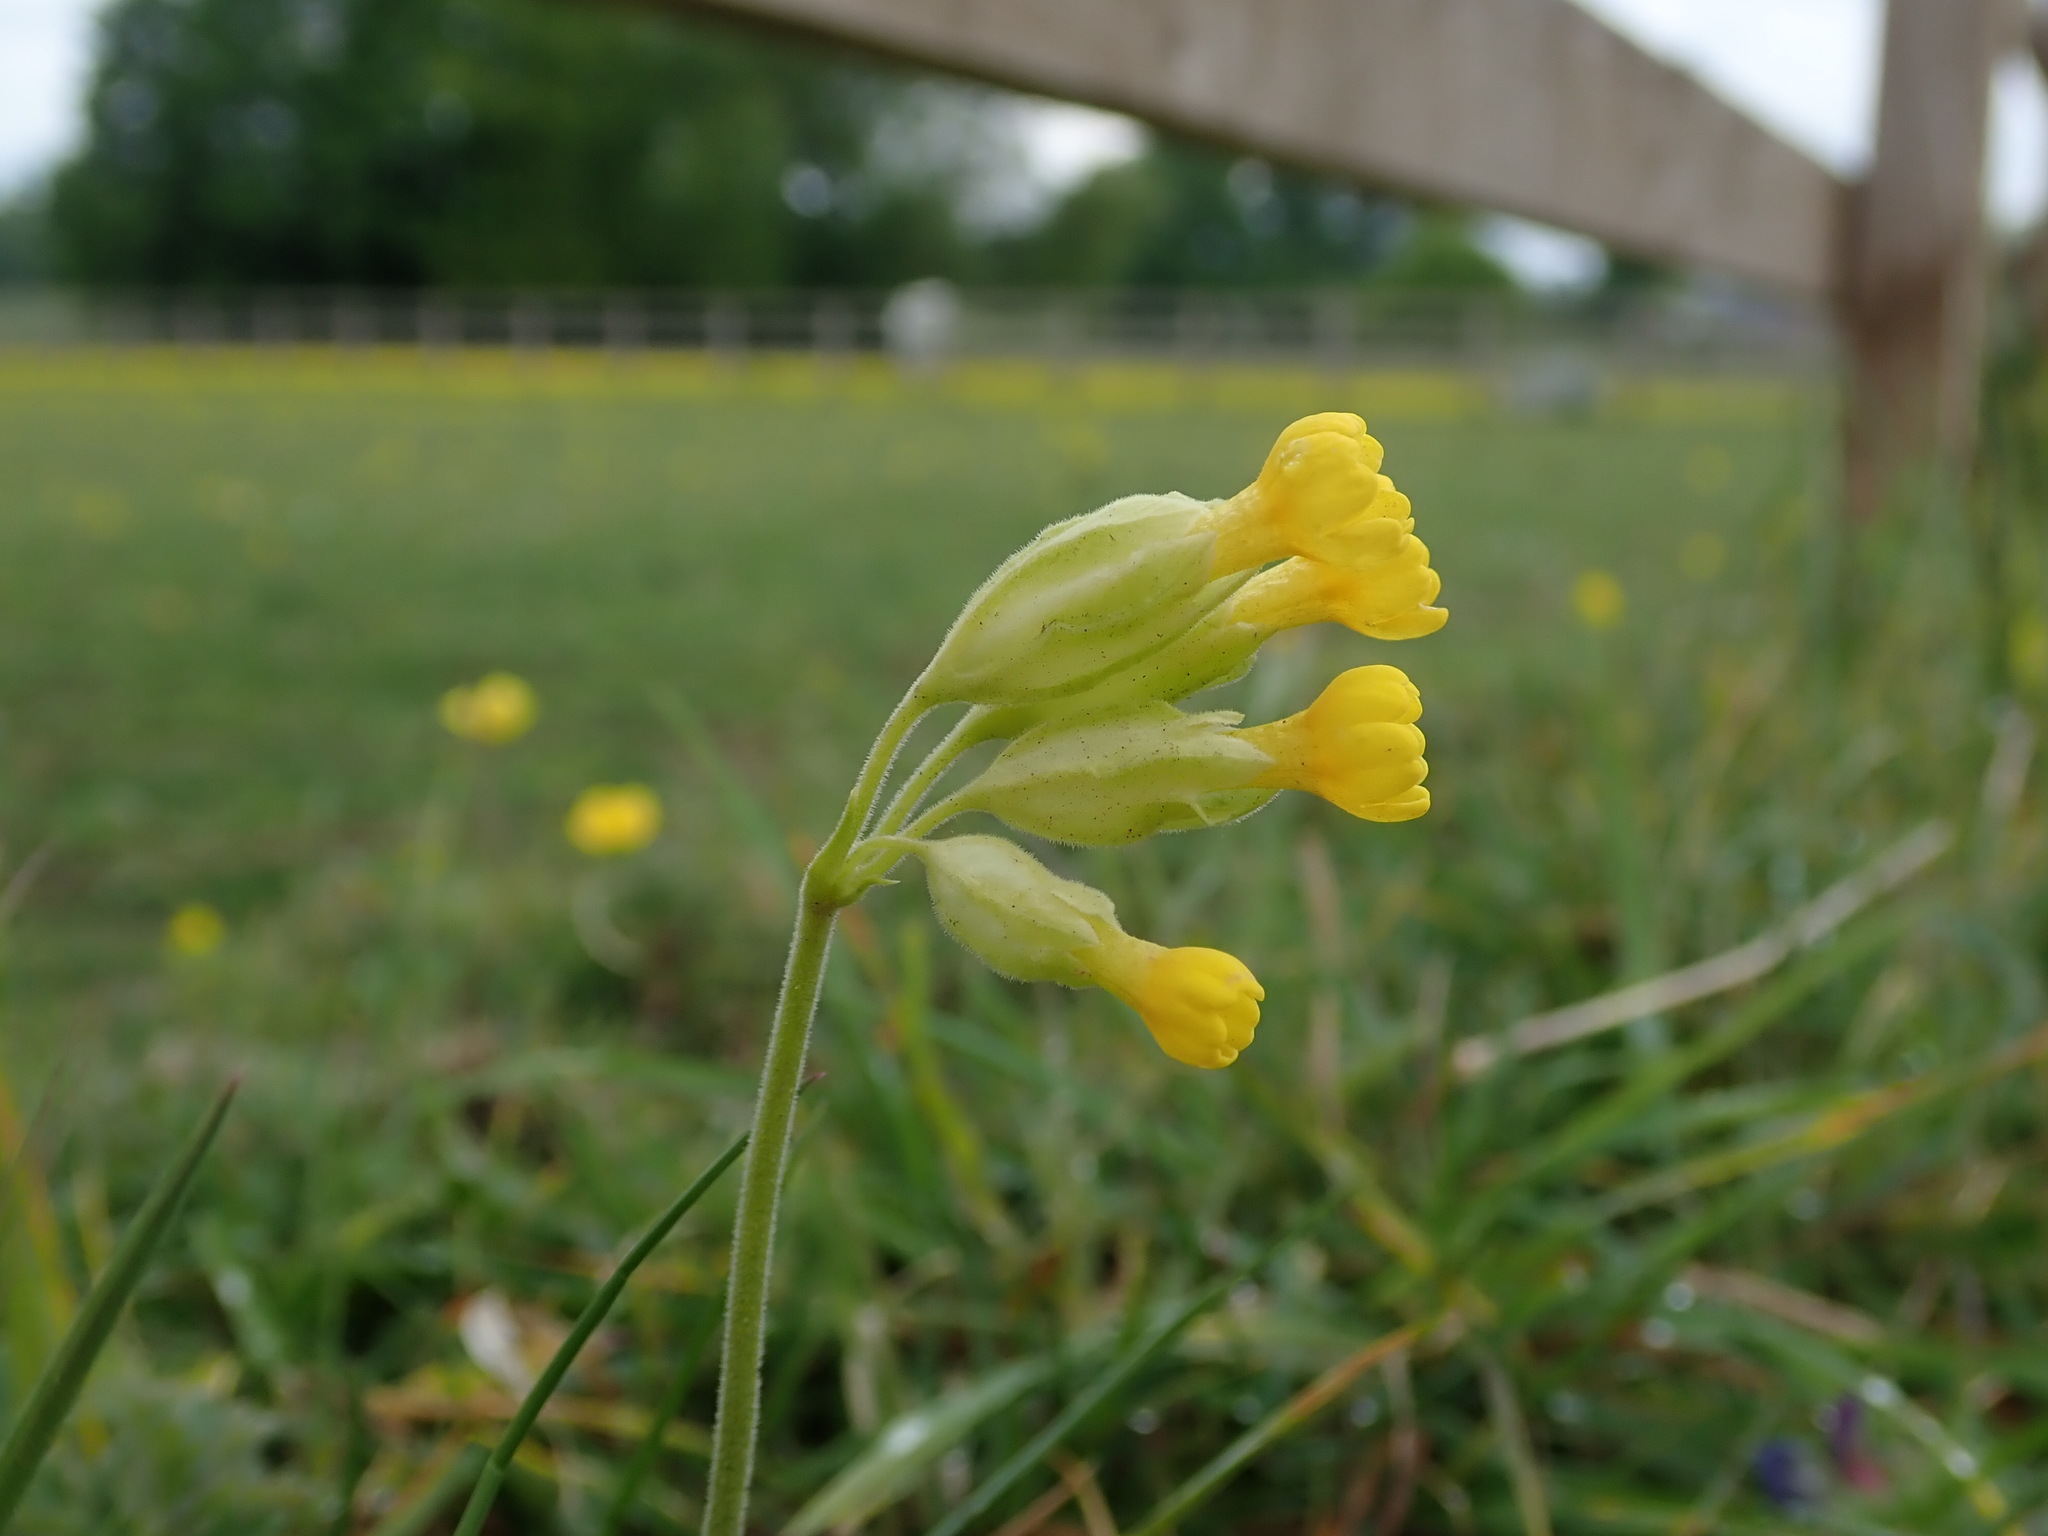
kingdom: Plantae
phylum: Tracheophyta
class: Magnoliopsida
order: Ericales
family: Primulaceae
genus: Primula
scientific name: Primula veris
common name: Cowslip
